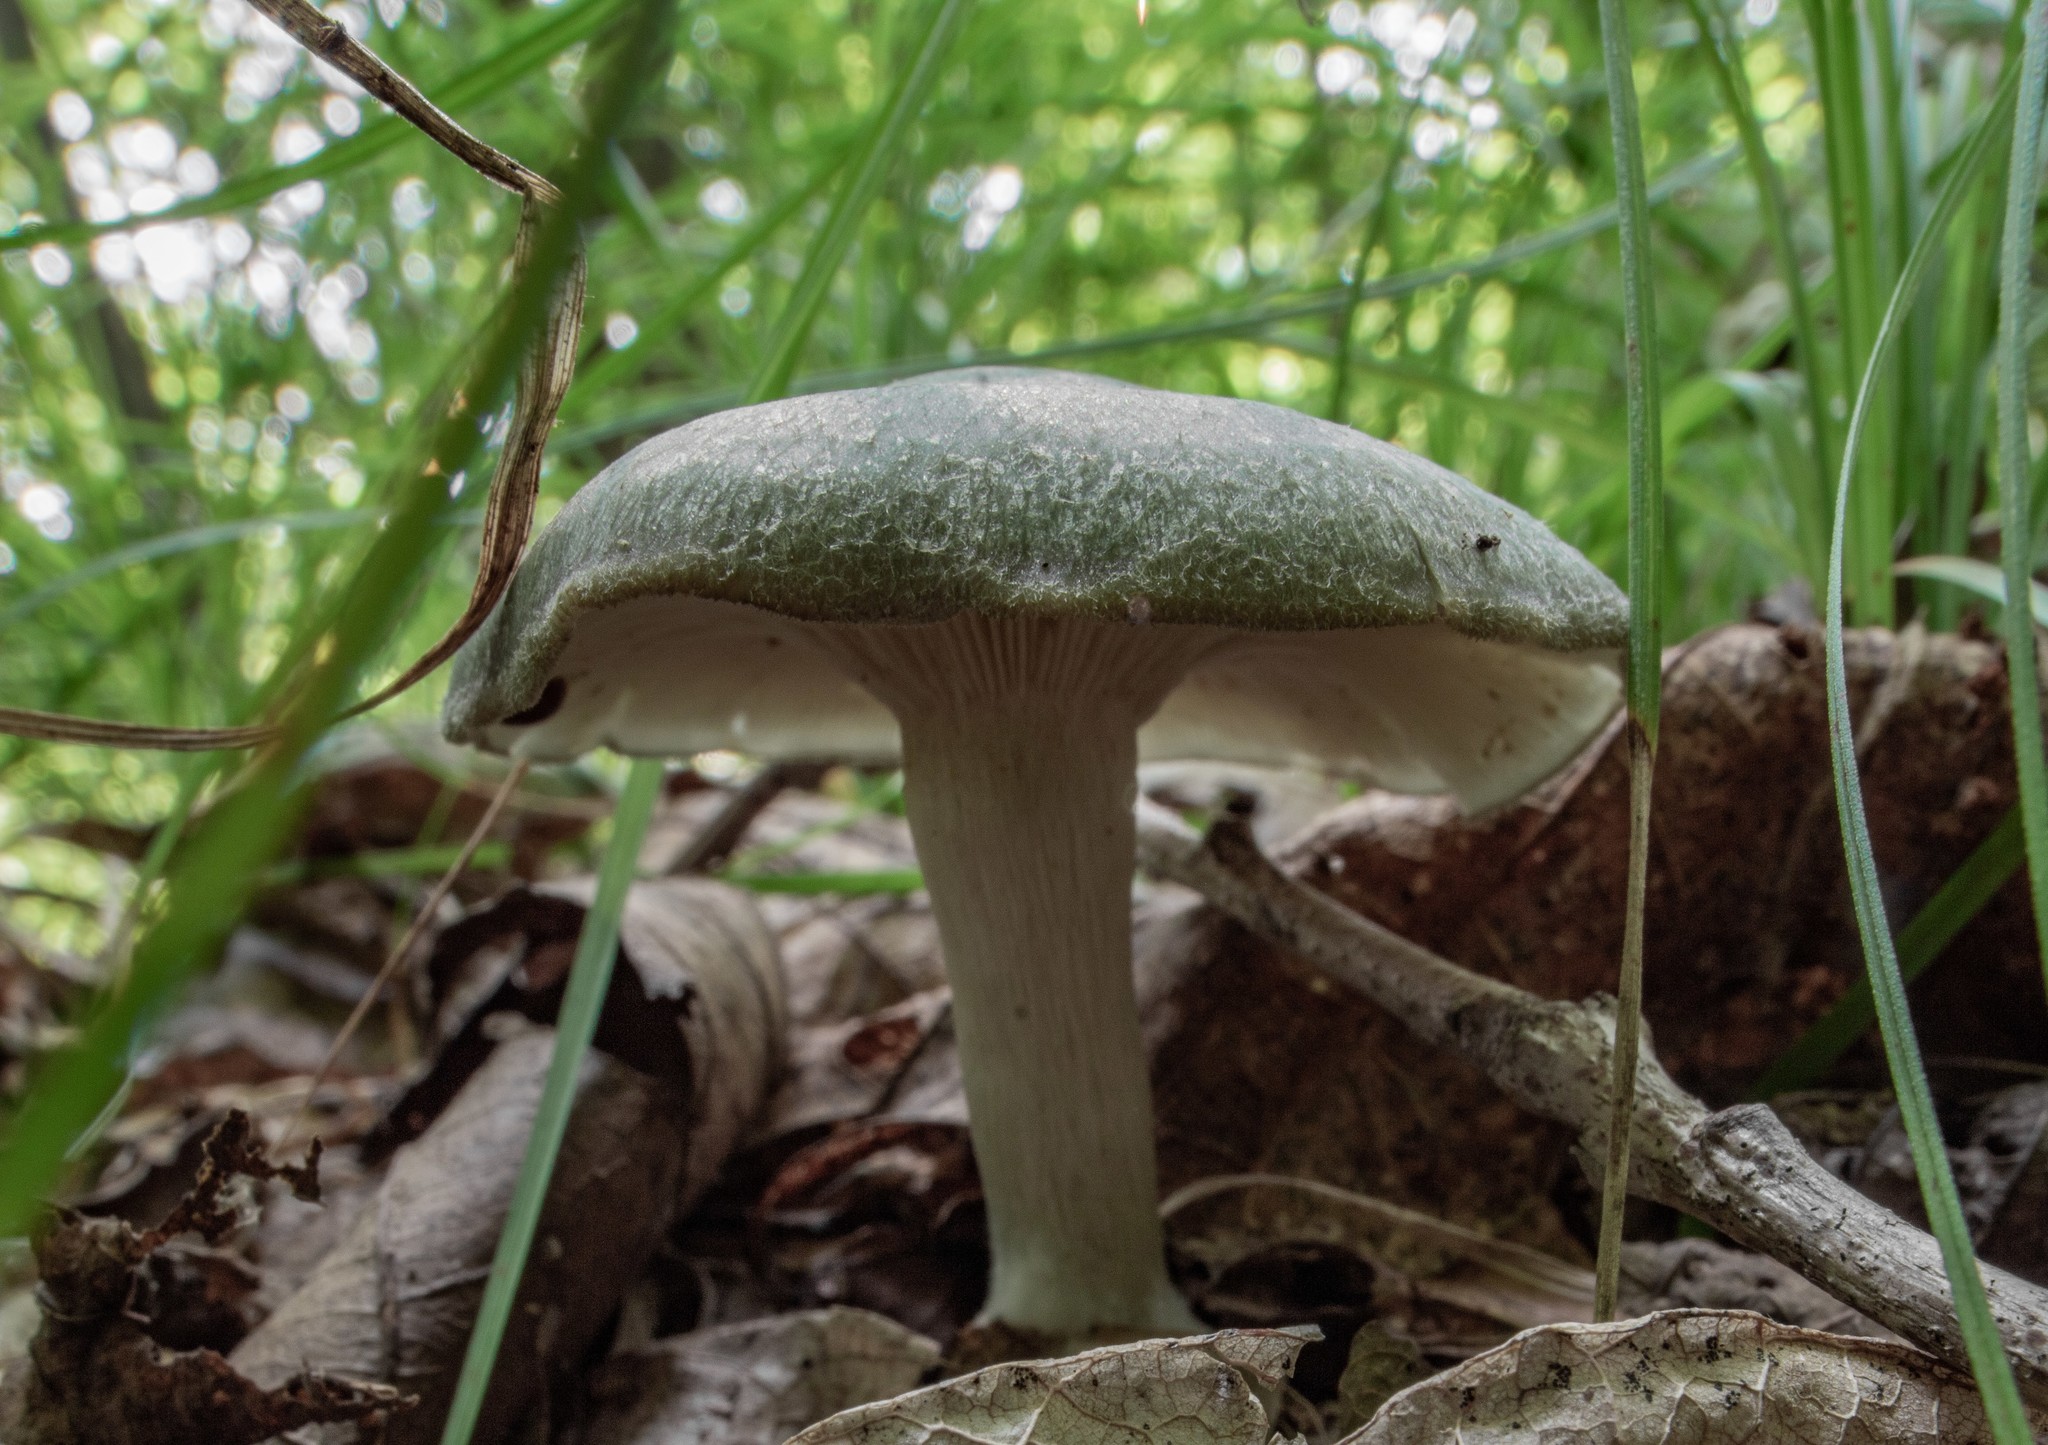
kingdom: Fungi
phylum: Basidiomycota
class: Agaricomycetes
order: Agaricales
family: Tricholomataceae
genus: Clitocybe
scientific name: Clitocybe
